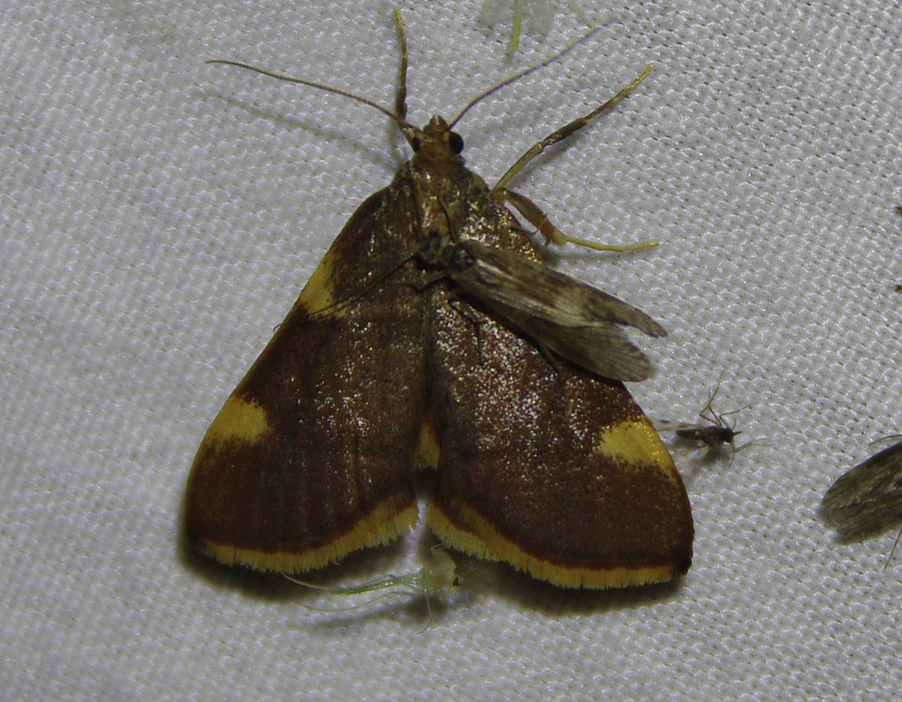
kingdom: Animalia
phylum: Arthropoda
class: Insecta
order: Lepidoptera
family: Pyralidae
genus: Hypsopygia
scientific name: Hypsopygia olinalis
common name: Yellow-fringed dolichomia moth
